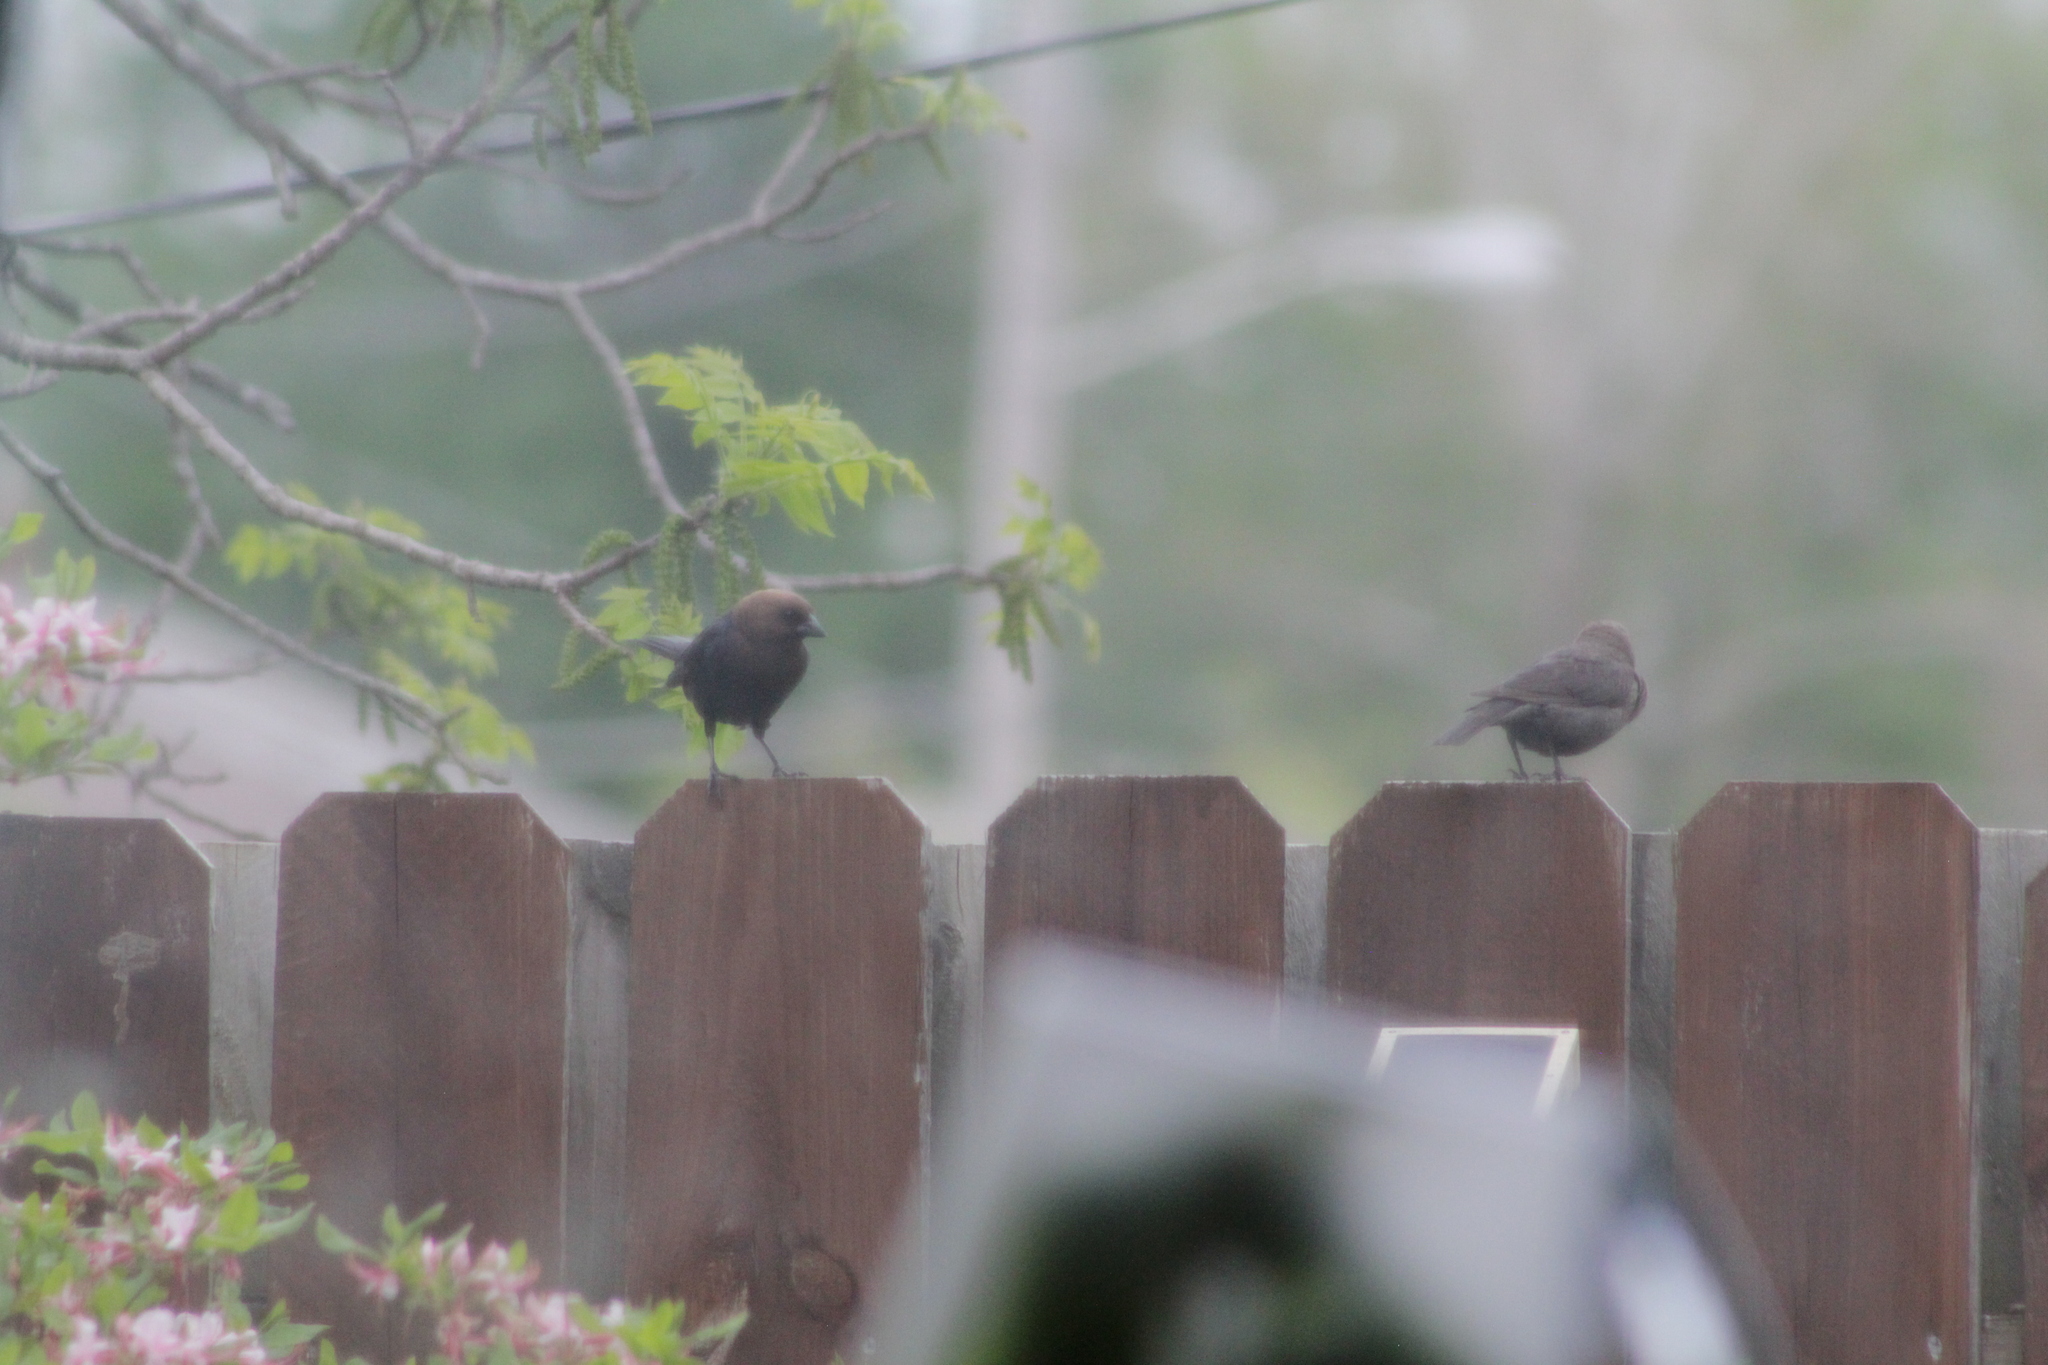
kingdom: Animalia
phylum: Chordata
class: Aves
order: Passeriformes
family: Icteridae
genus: Molothrus
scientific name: Molothrus ater
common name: Brown-headed cowbird
